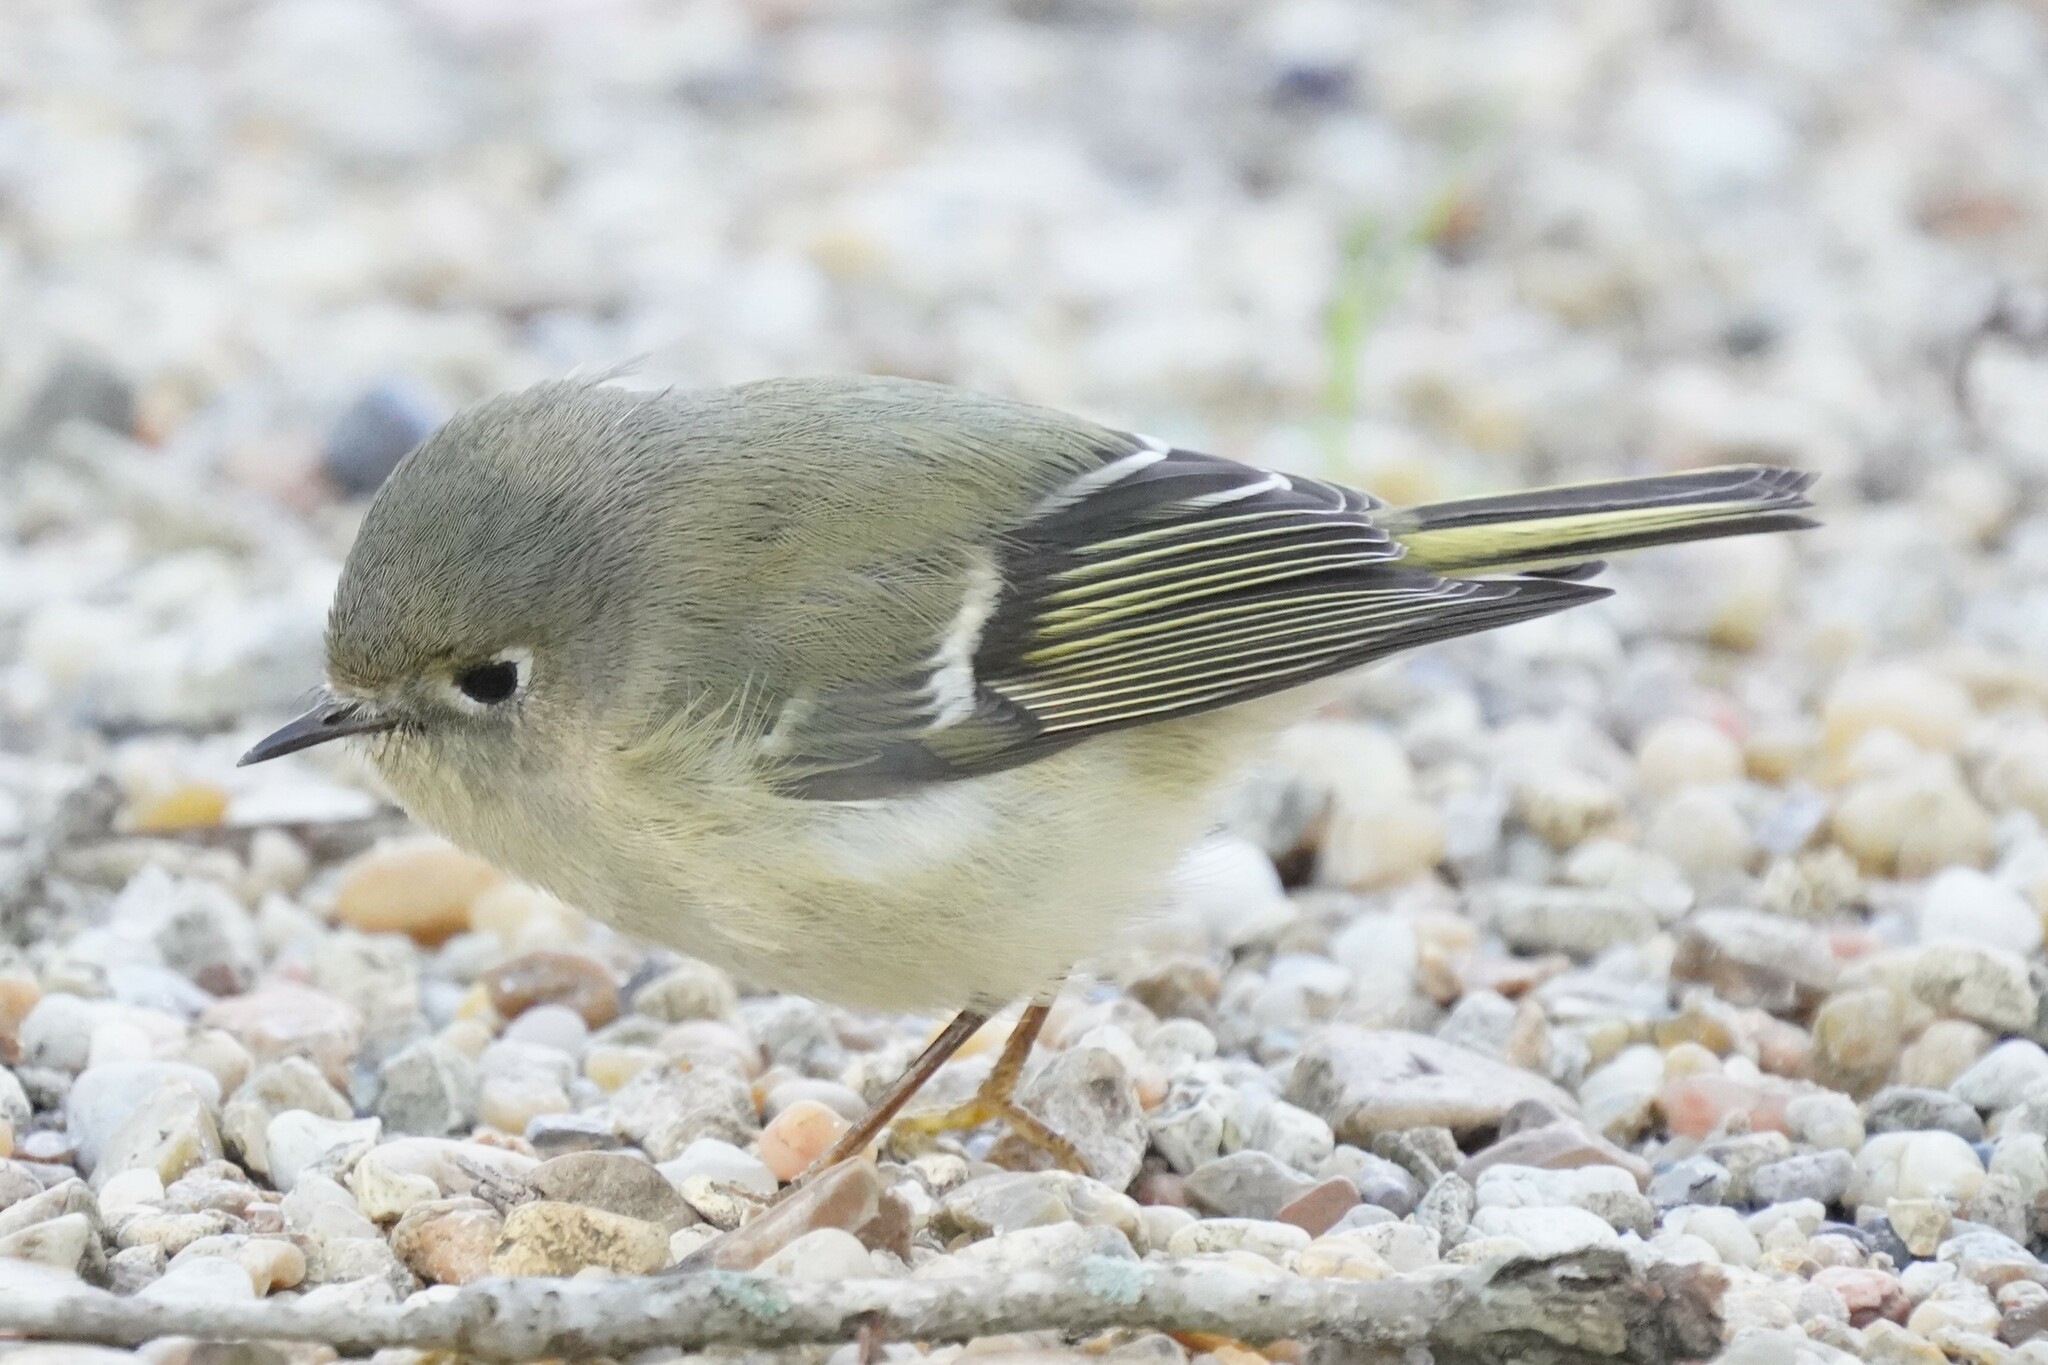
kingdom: Animalia
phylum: Chordata
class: Aves
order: Passeriformes
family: Regulidae
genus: Regulus
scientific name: Regulus calendula
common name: Ruby-crowned kinglet
